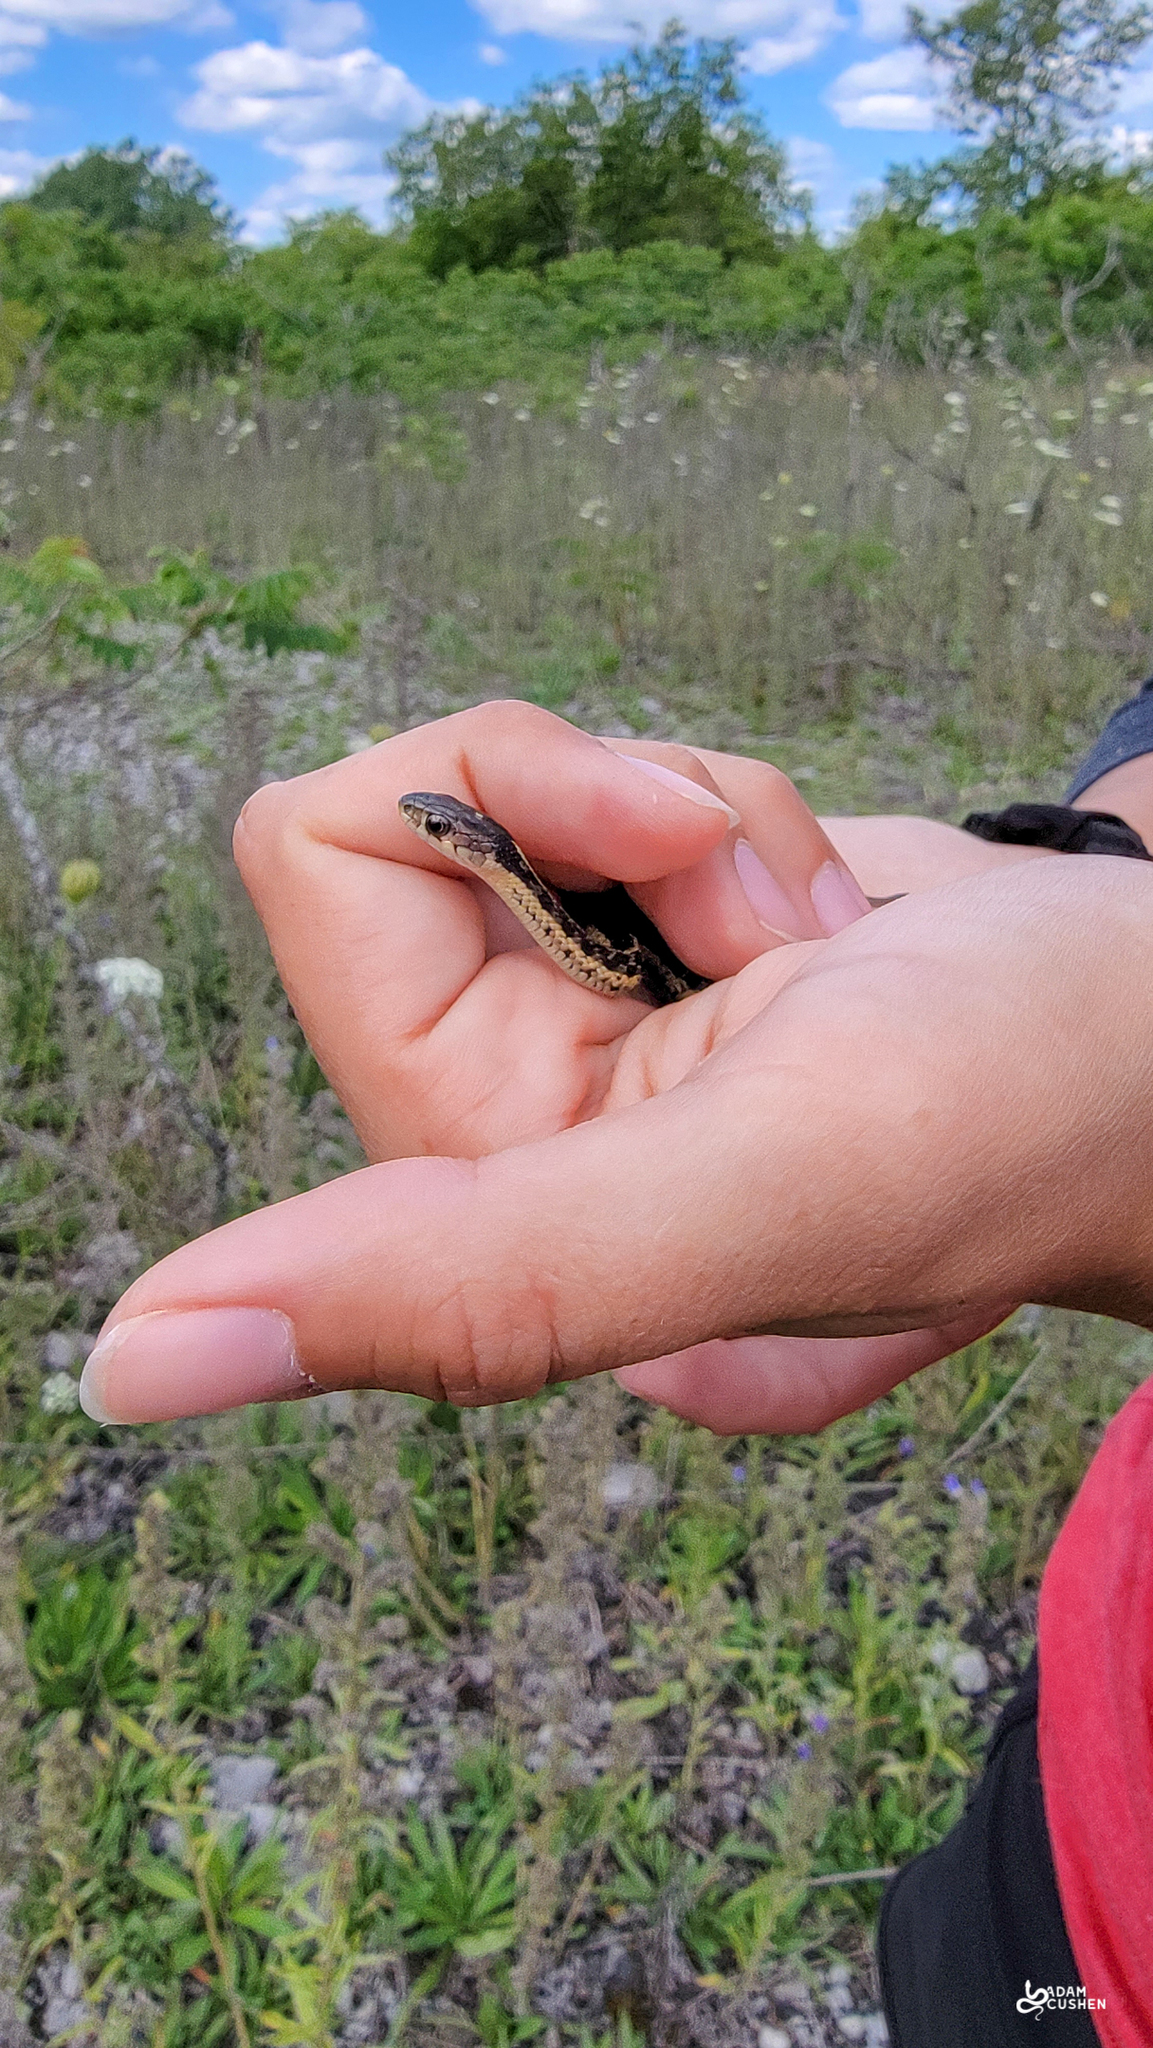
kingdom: Animalia
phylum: Chordata
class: Squamata
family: Colubridae
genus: Thamnophis
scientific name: Thamnophis sirtalis
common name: Common garter snake
